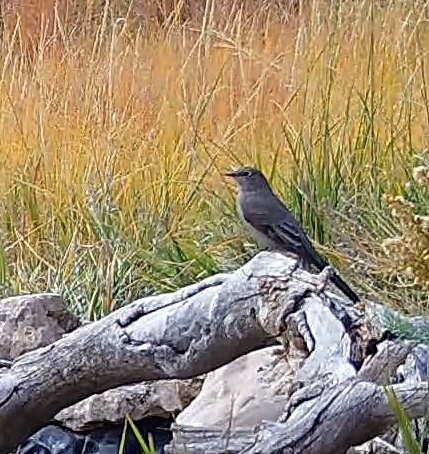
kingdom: Animalia
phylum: Chordata
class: Aves
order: Passeriformes
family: Turdidae
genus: Myadestes
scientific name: Myadestes townsendi
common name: Townsend's solitaire
